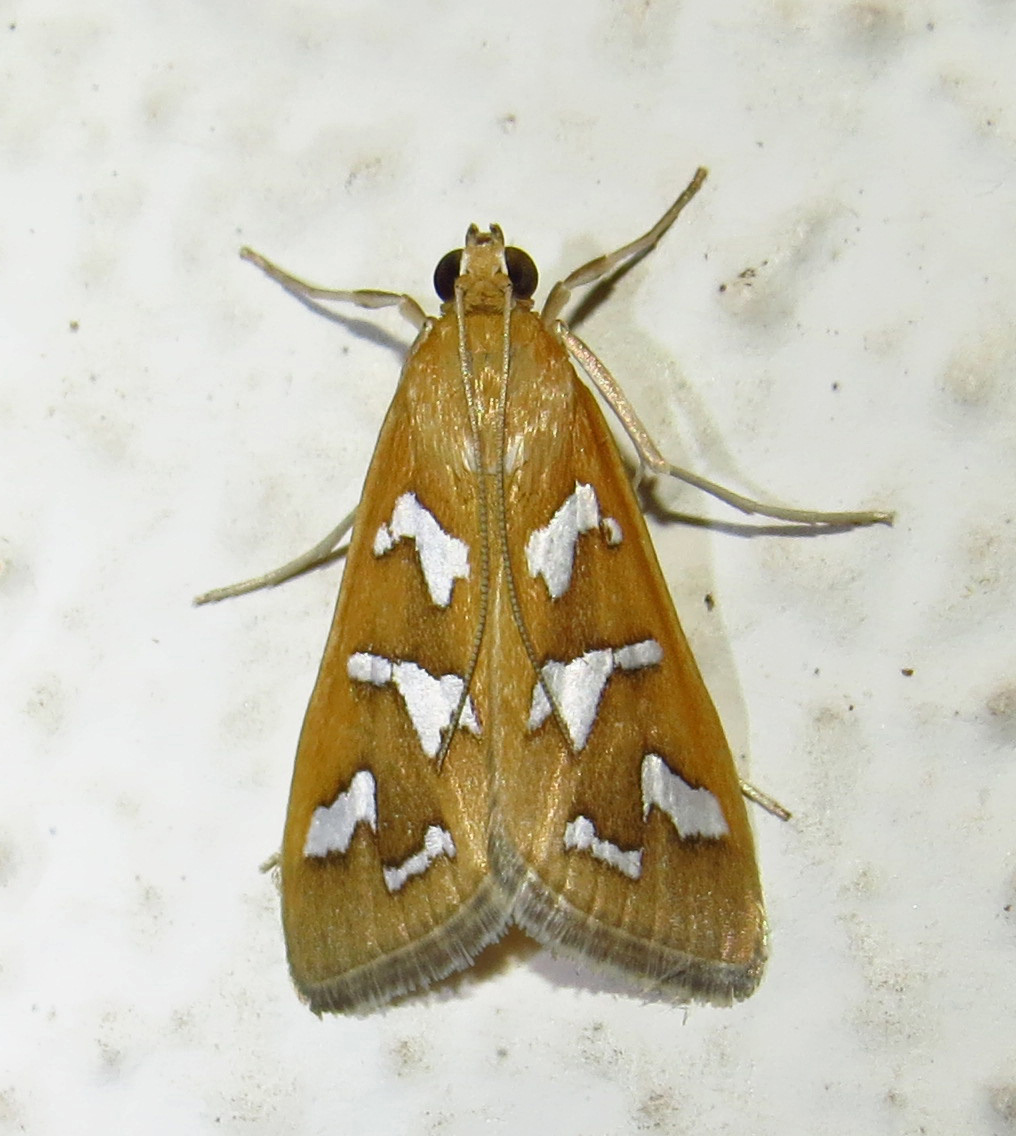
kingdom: Animalia
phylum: Arthropoda
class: Insecta
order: Lepidoptera
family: Crambidae
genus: Diastictis
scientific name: Diastictis fracturalis
